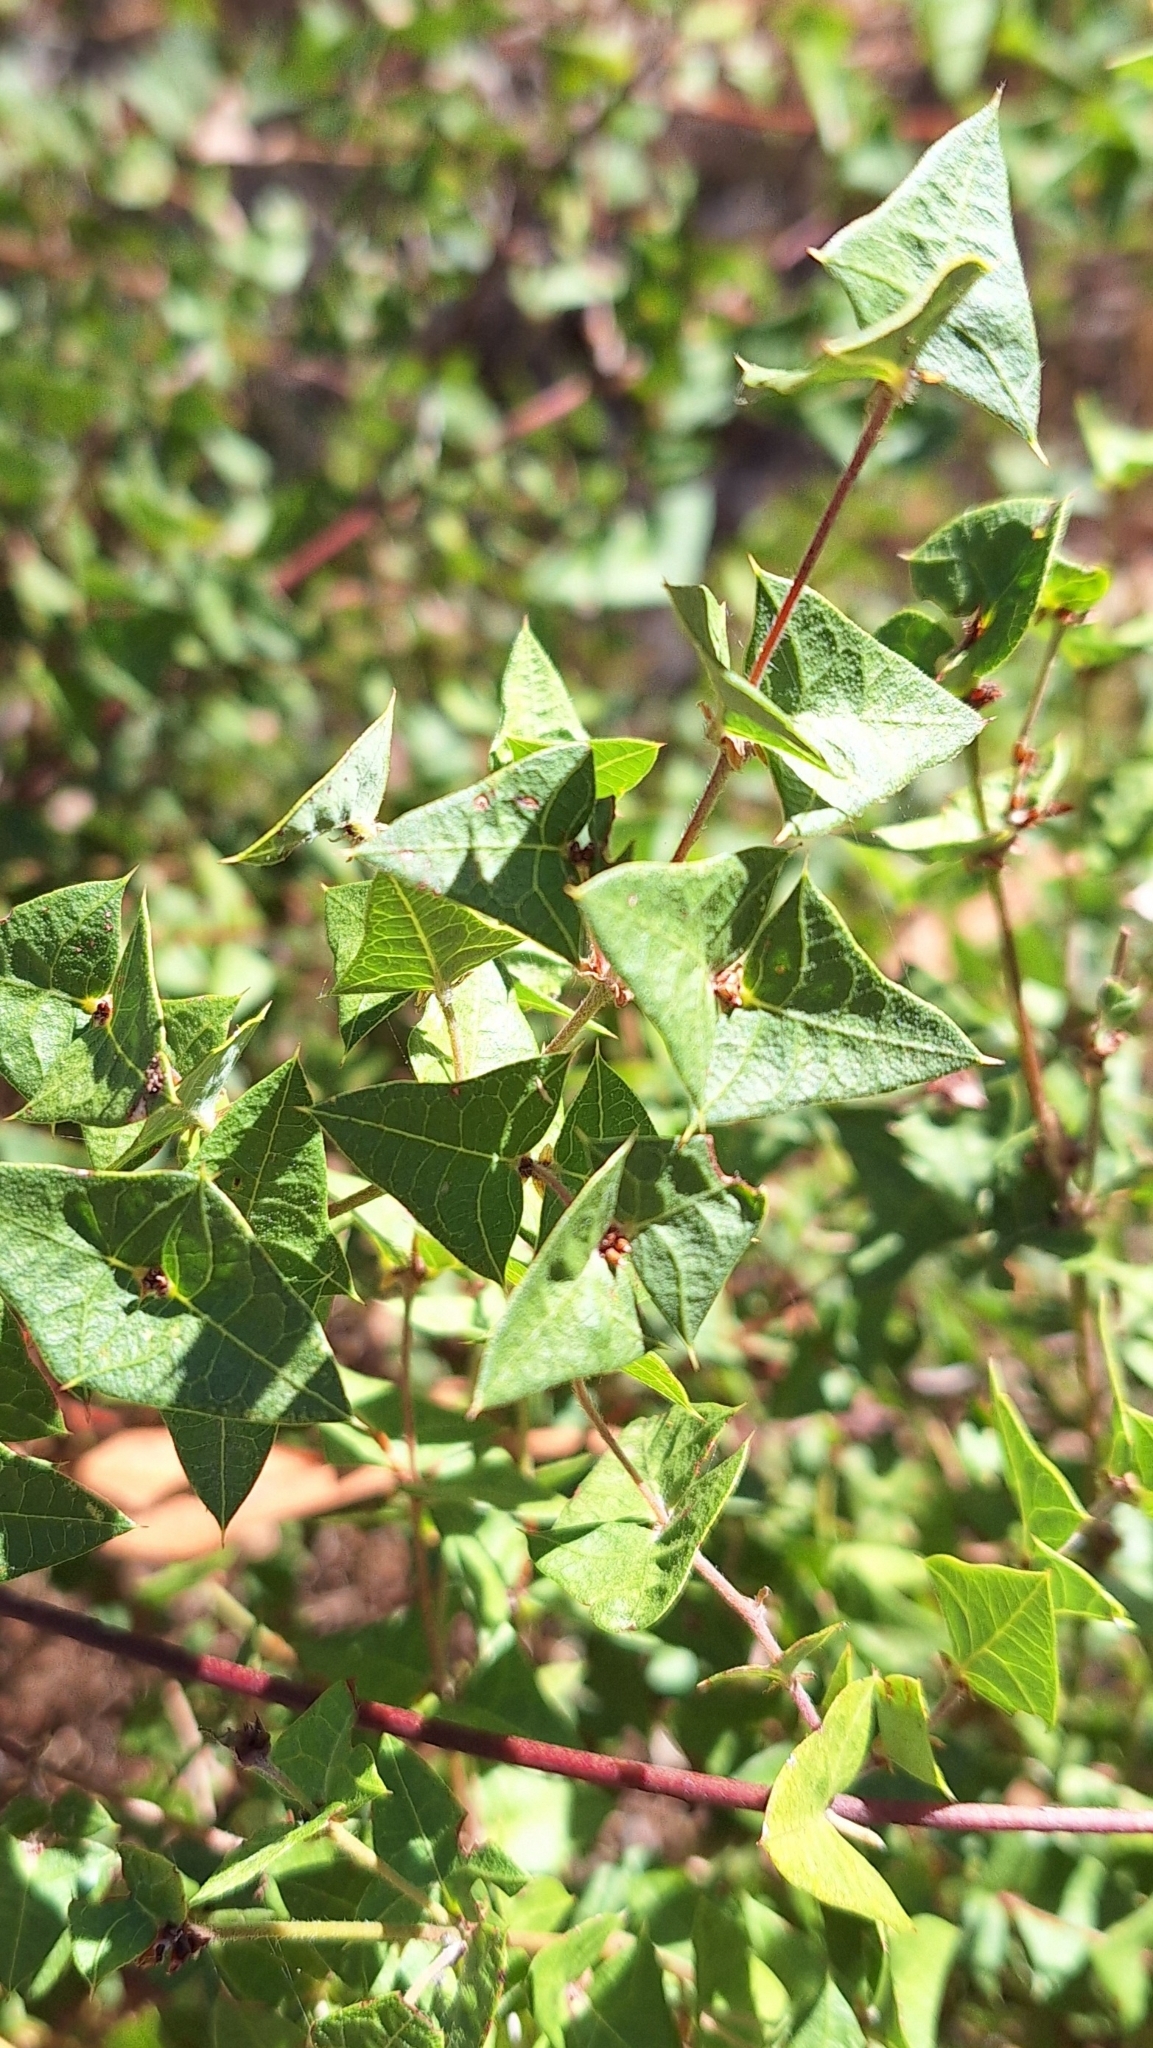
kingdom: Plantae
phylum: Tracheophyta
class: Magnoliopsida
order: Fabales
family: Fabaceae
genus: Platylobium
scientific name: Platylobium obtusangulum
